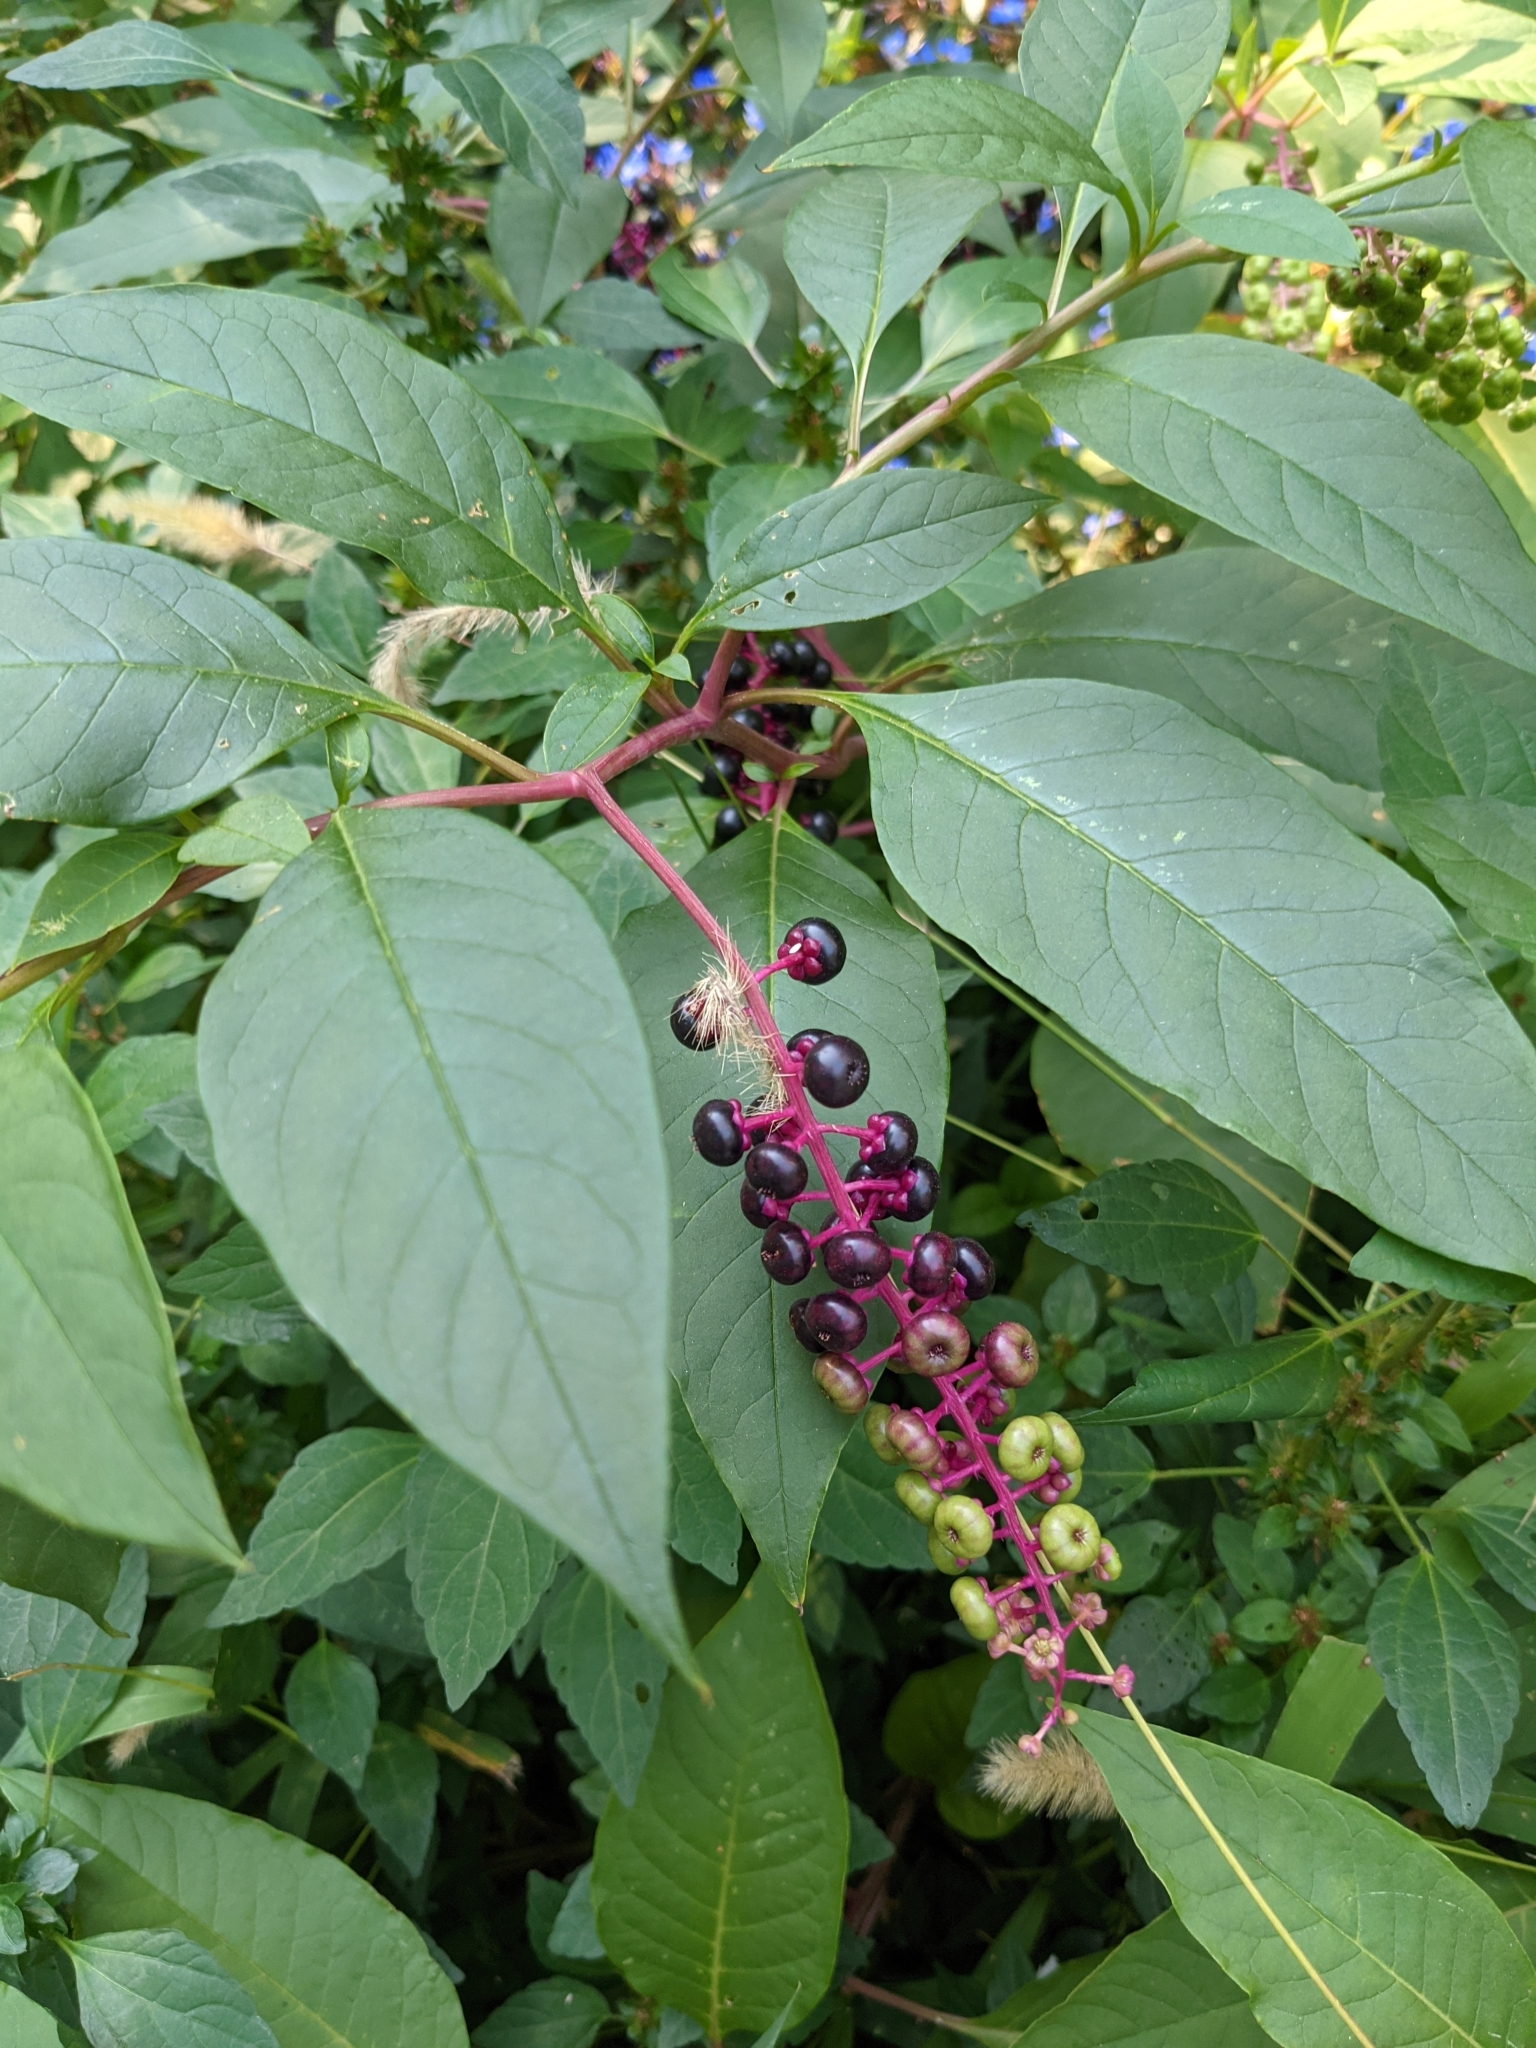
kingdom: Plantae
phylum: Tracheophyta
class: Magnoliopsida
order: Caryophyllales
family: Phytolaccaceae
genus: Phytolacca
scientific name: Phytolacca americana
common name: American pokeweed
